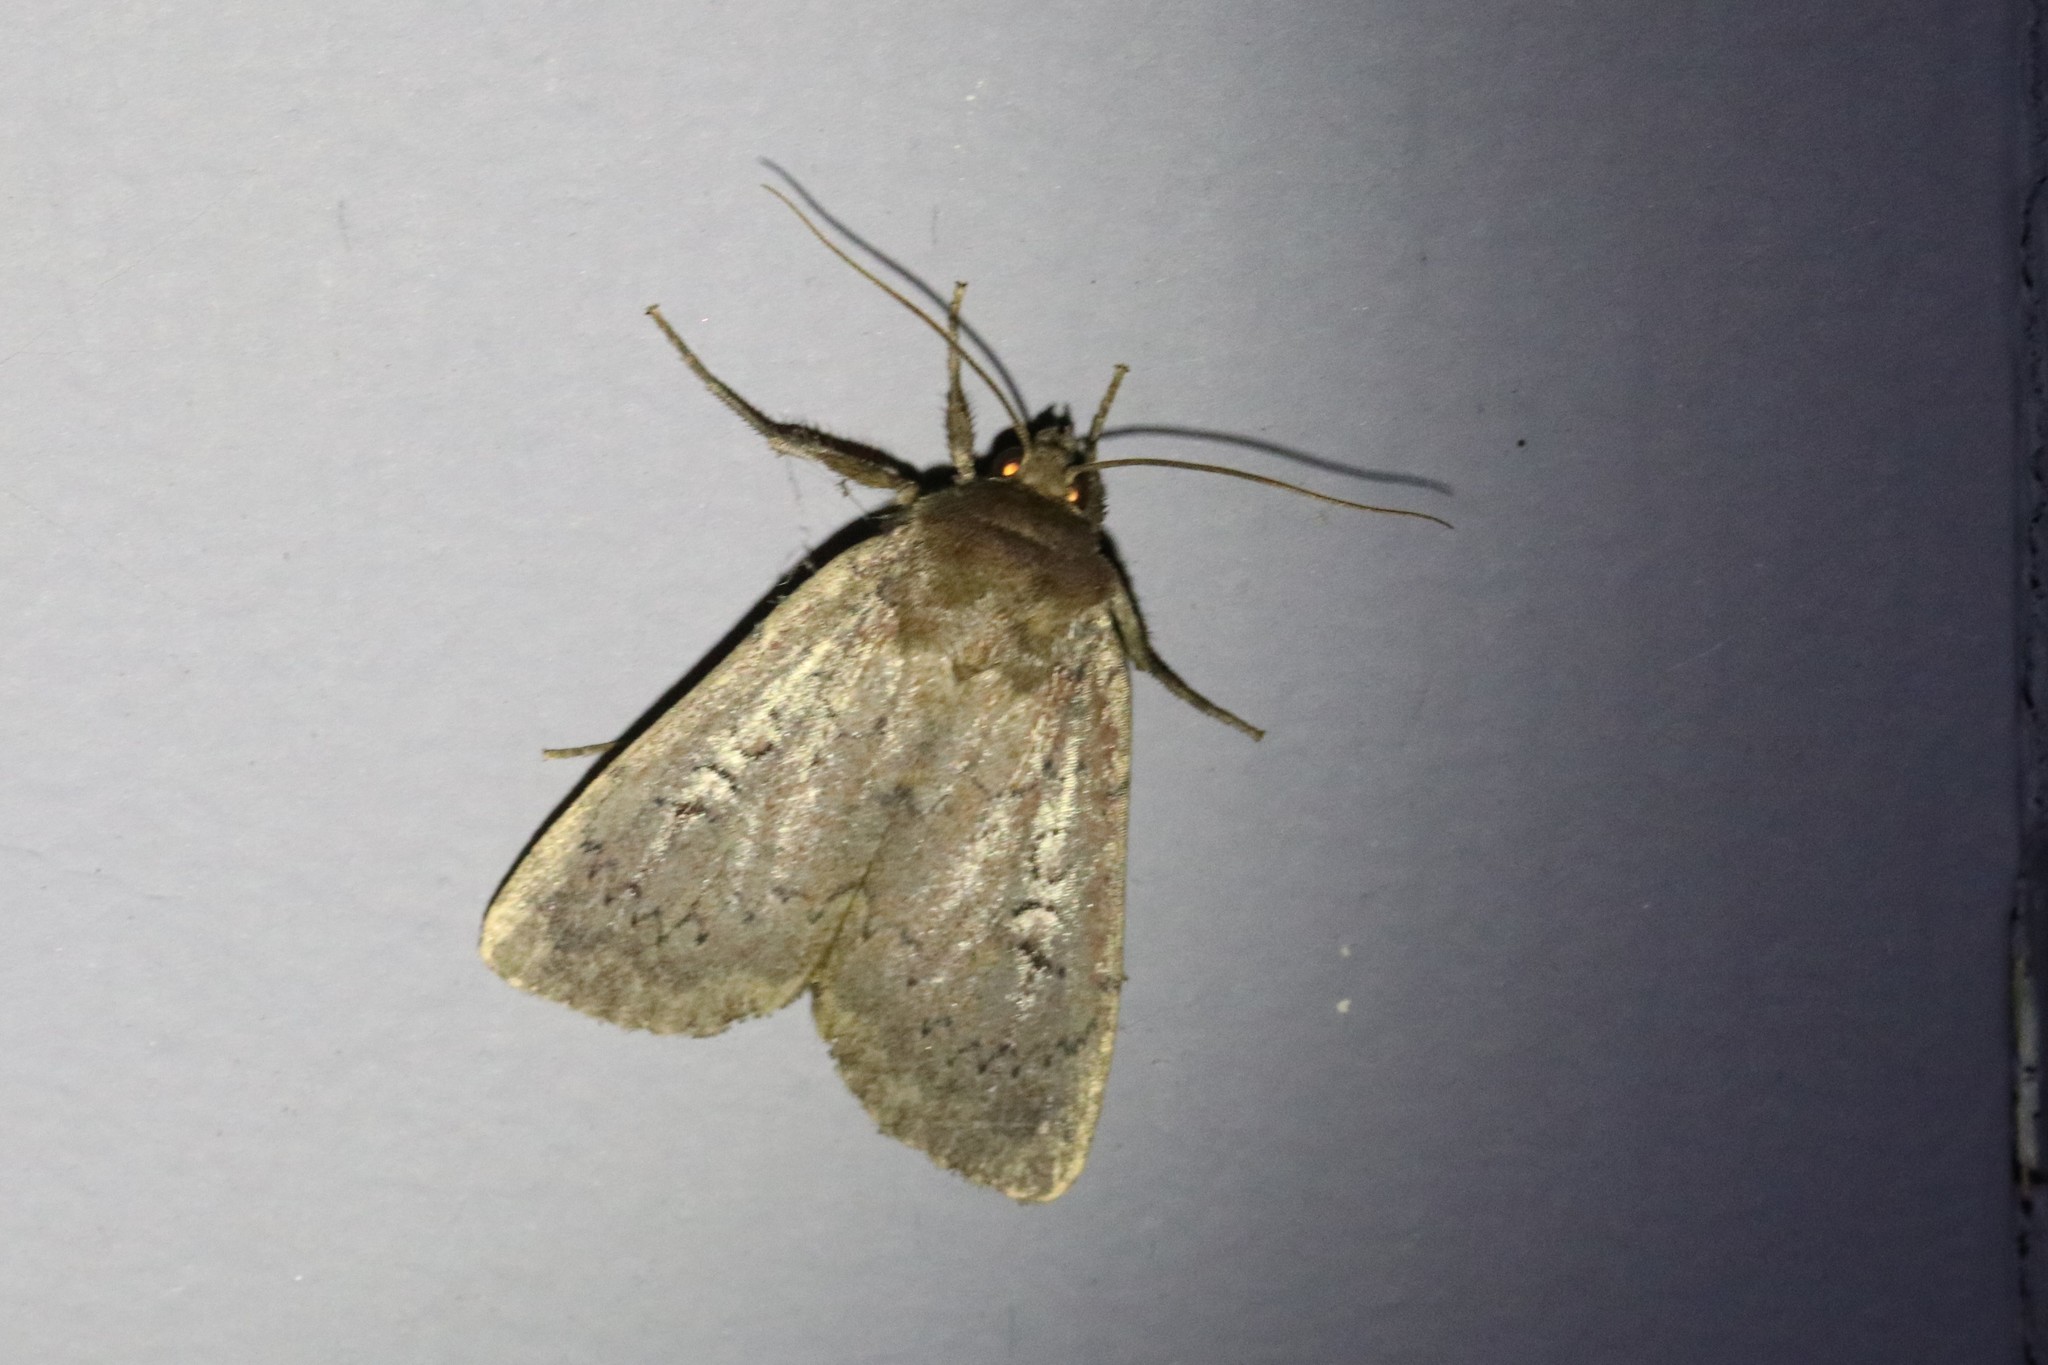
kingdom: Animalia
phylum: Arthropoda
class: Insecta
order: Lepidoptera
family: Noctuidae
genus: Graphiphora
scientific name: Graphiphora augur
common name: Double dart
